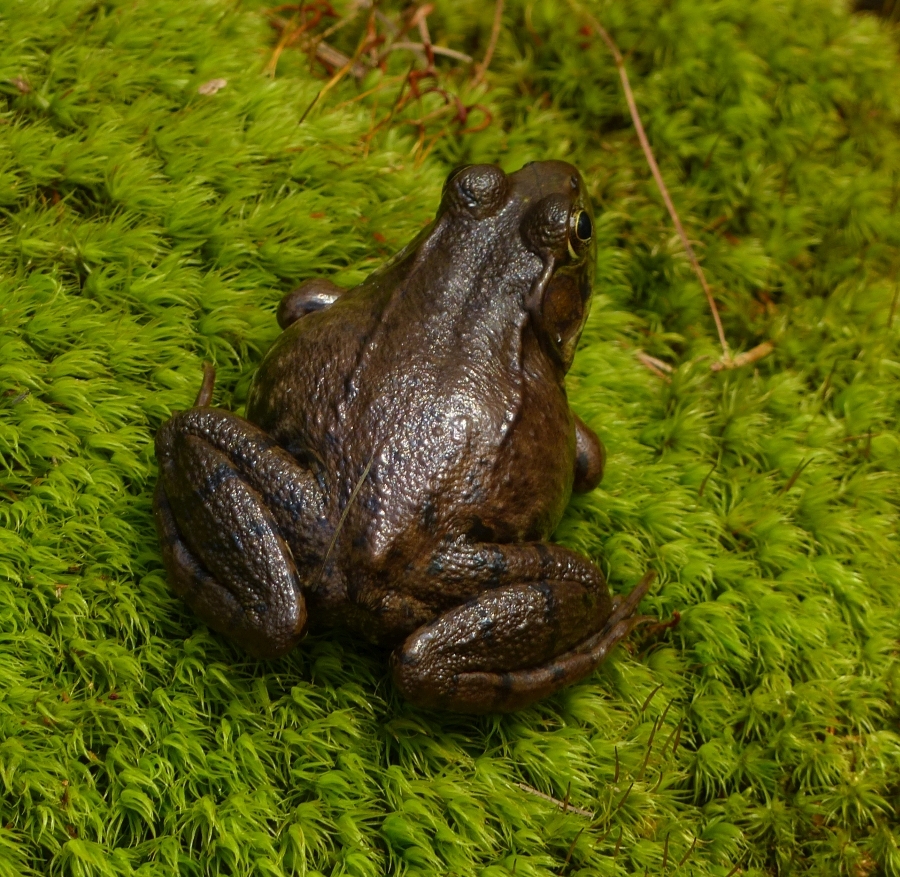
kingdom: Animalia
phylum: Chordata
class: Amphibia
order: Anura
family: Ranidae
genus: Lithobates
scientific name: Lithobates clamitans
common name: Green frog
